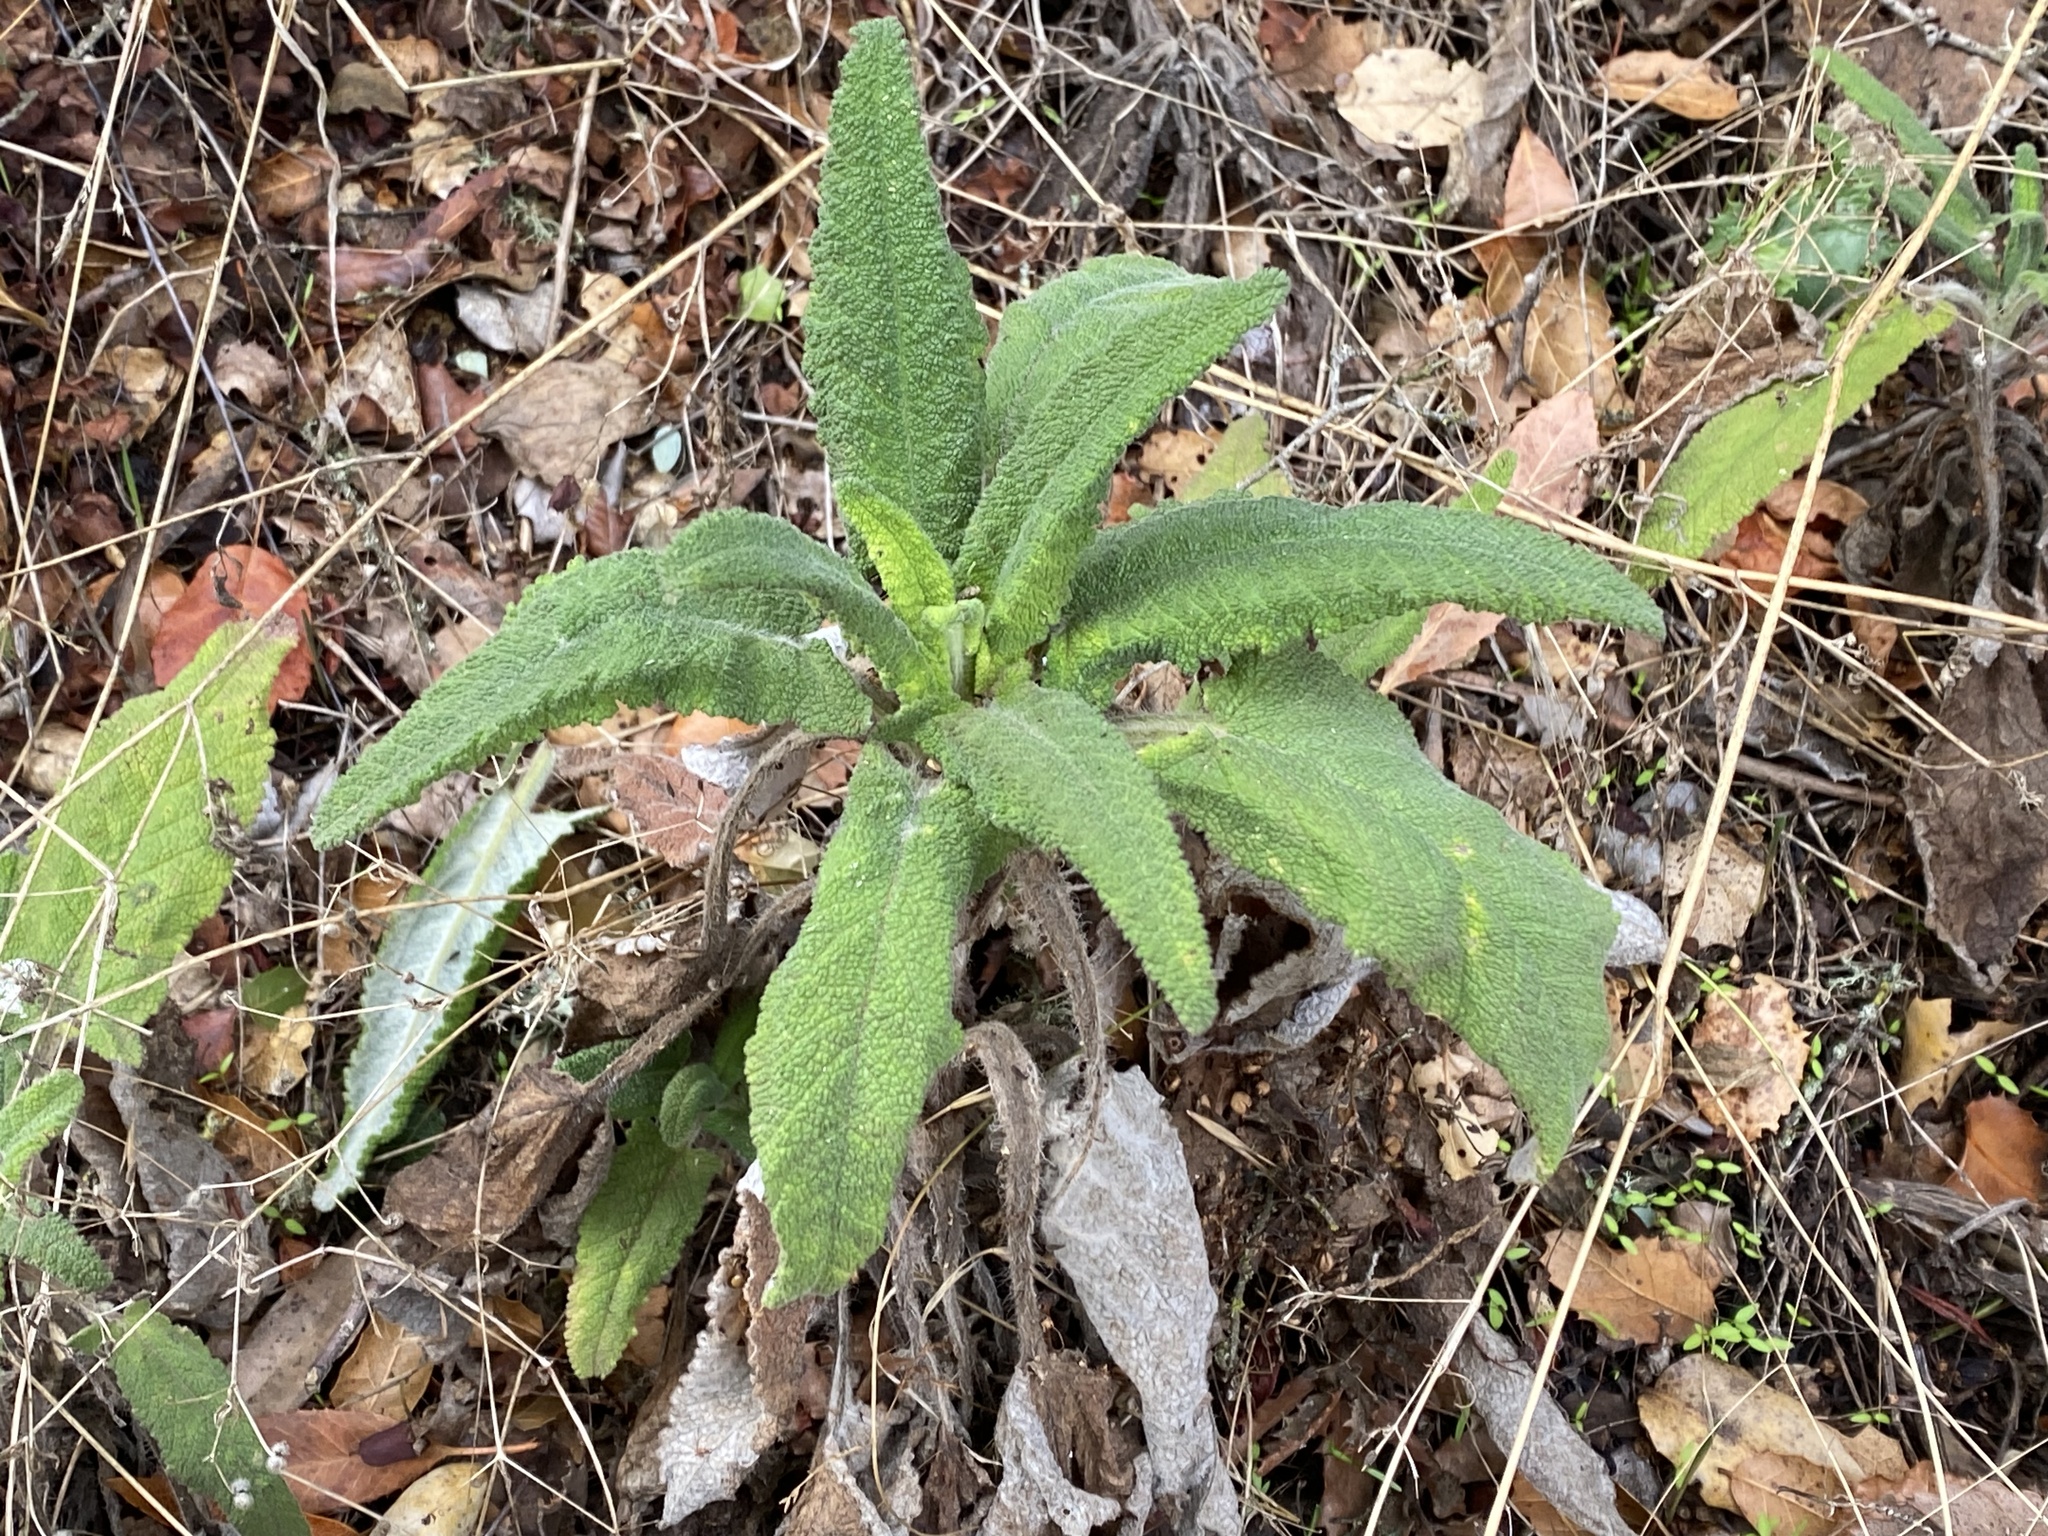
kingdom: Plantae
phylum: Tracheophyta
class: Magnoliopsida
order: Lamiales
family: Lamiaceae
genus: Salvia
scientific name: Salvia spathacea
